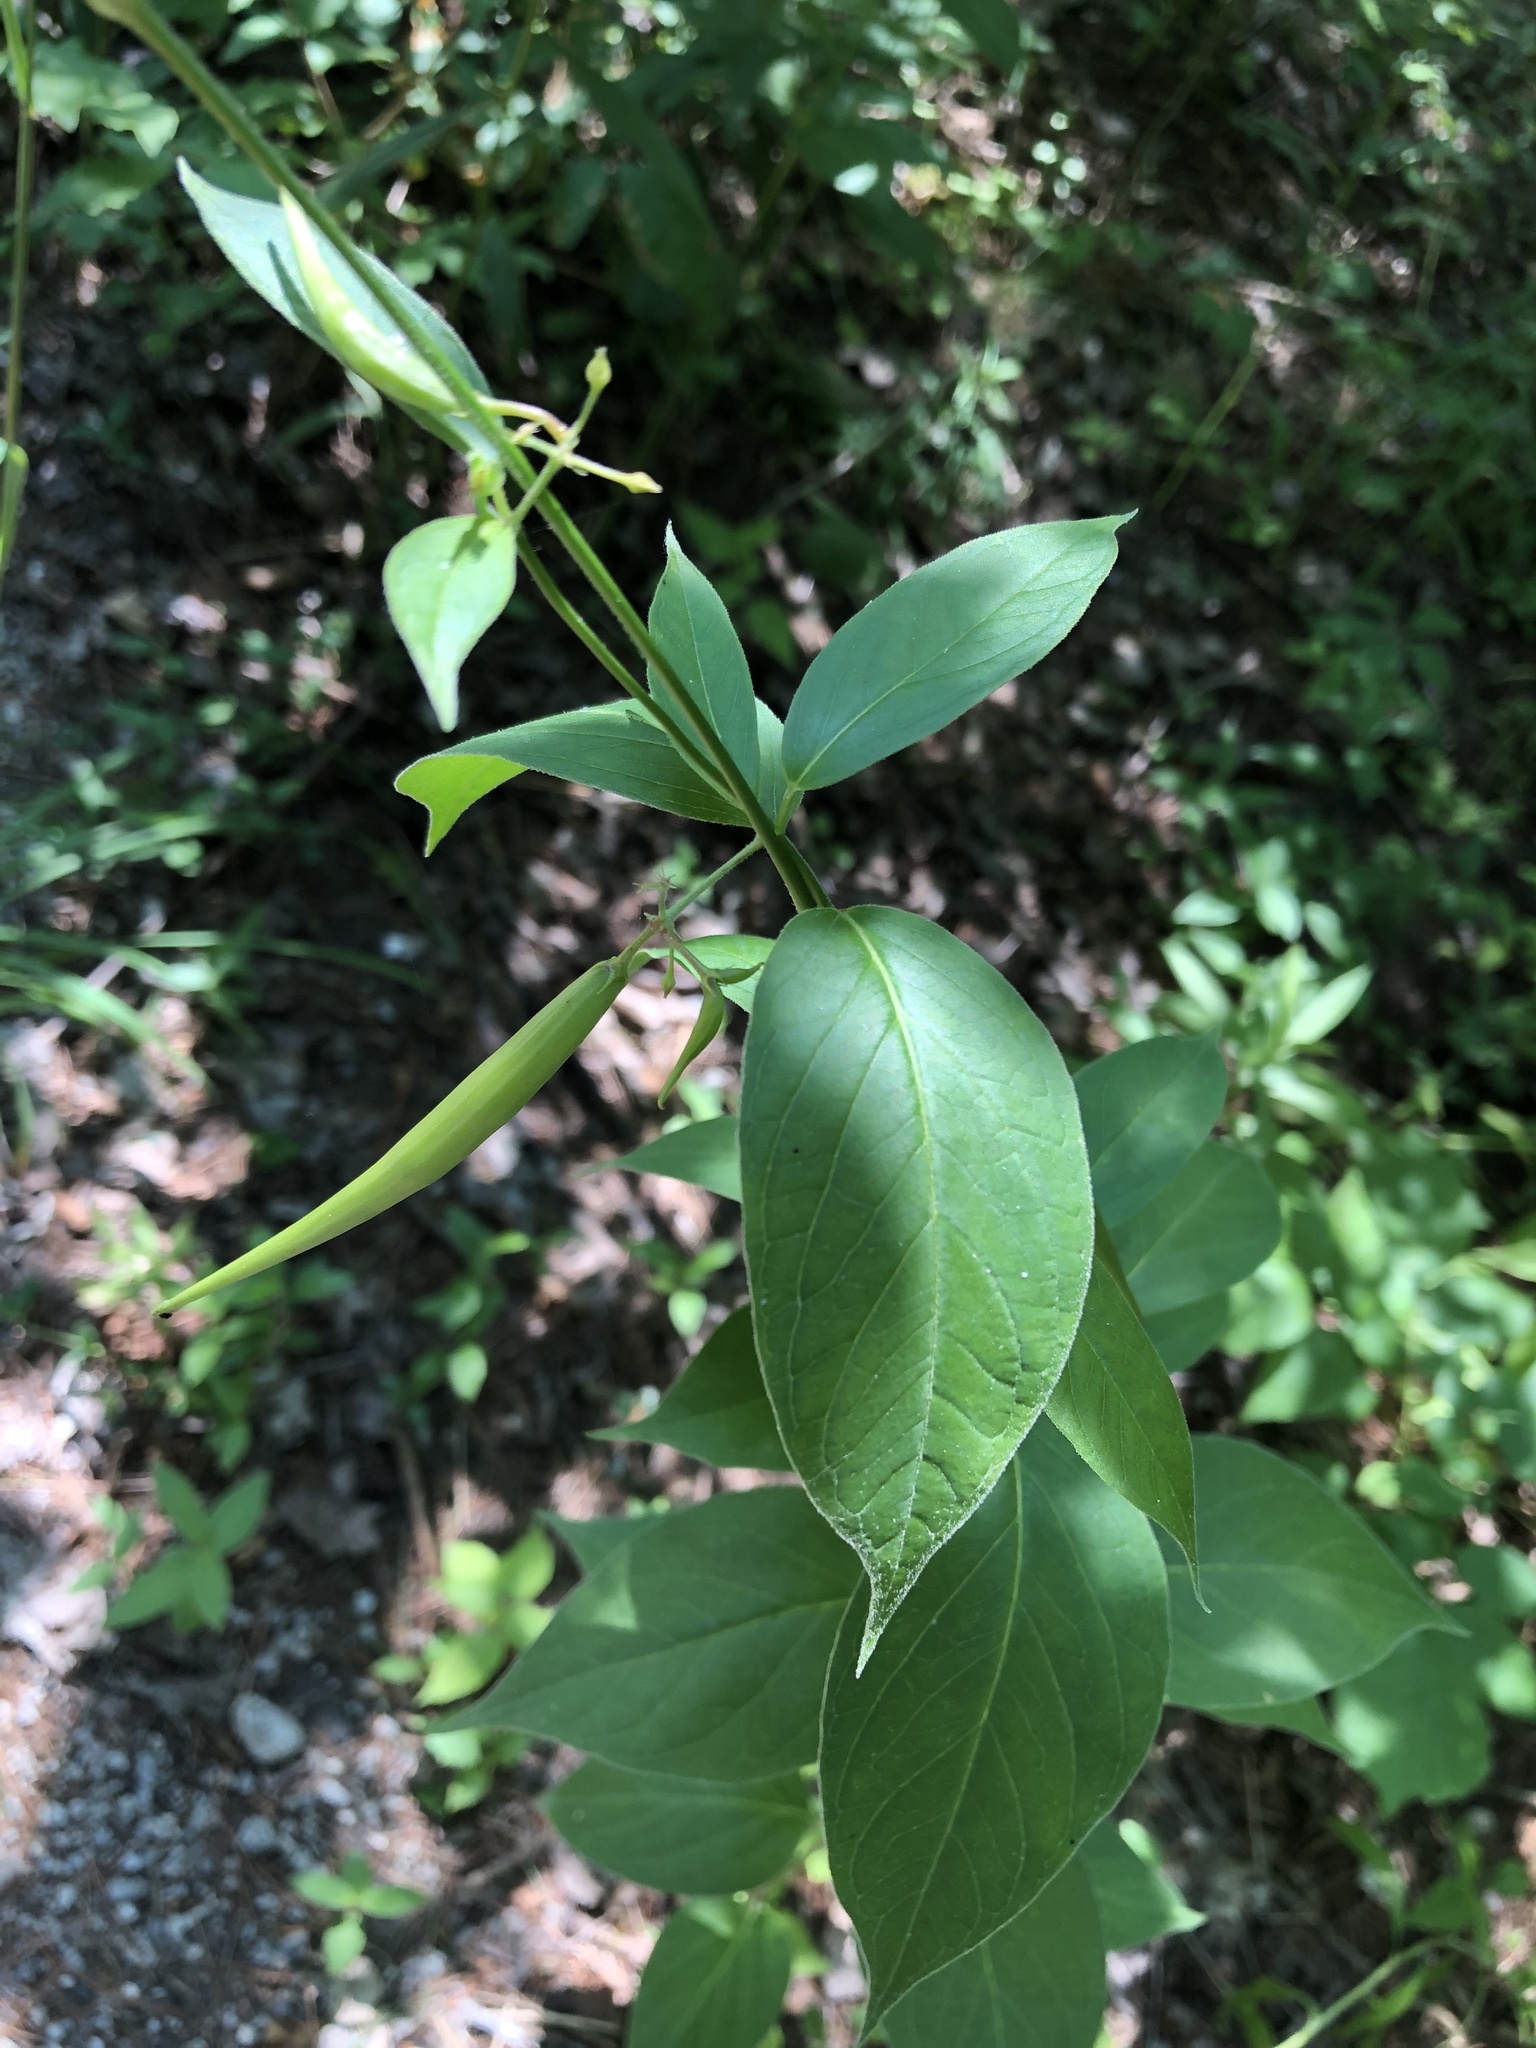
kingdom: Plantae
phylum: Tracheophyta
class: Magnoliopsida
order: Gentianales
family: Apocynaceae
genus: Vincetoxicum
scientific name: Vincetoxicum rossicum
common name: Dog-strangling vine
